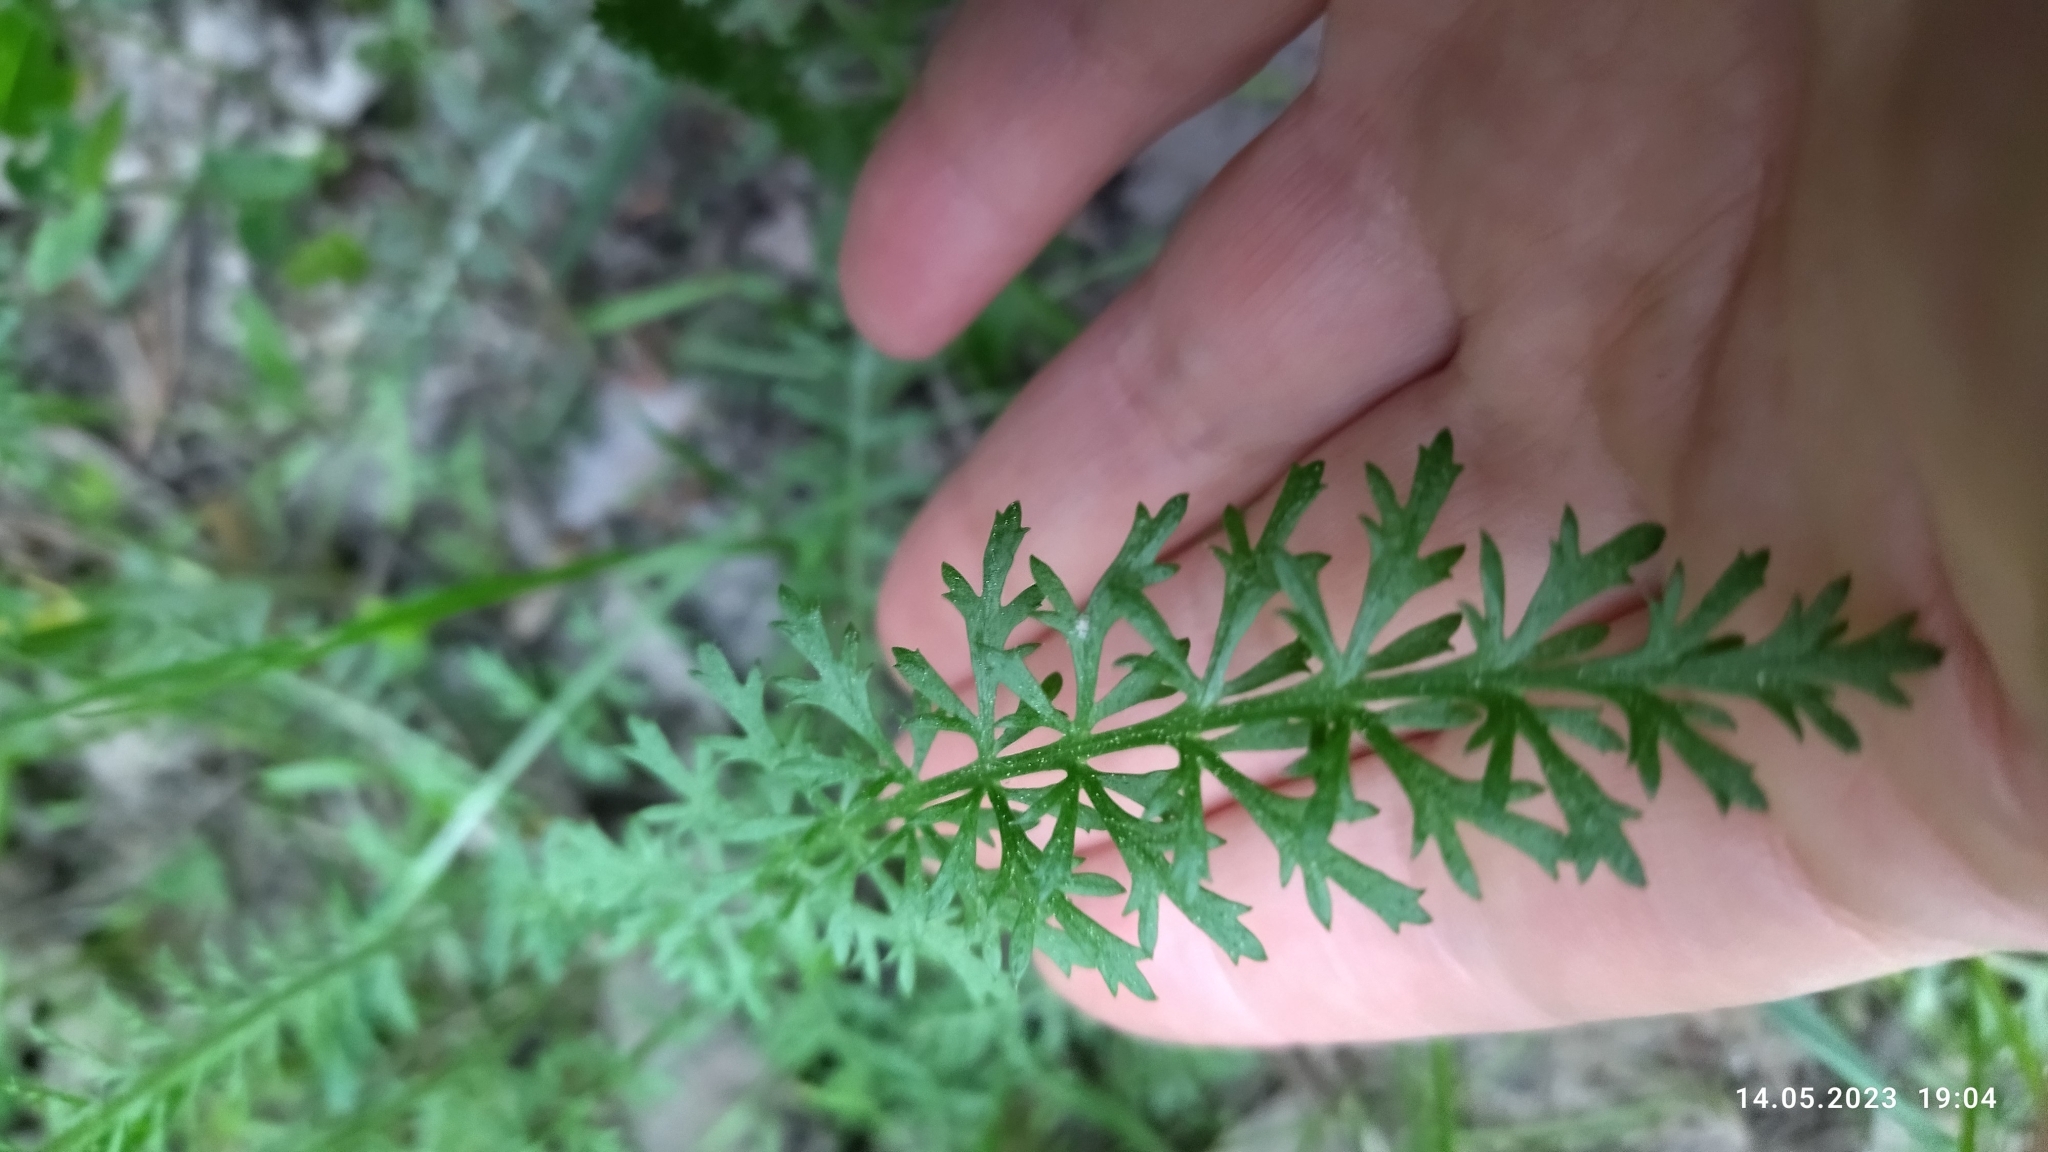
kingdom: Plantae
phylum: Tracheophyta
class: Magnoliopsida
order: Asterales
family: Asteraceae
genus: Achillea
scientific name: Achillea millefolium
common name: Yarrow
